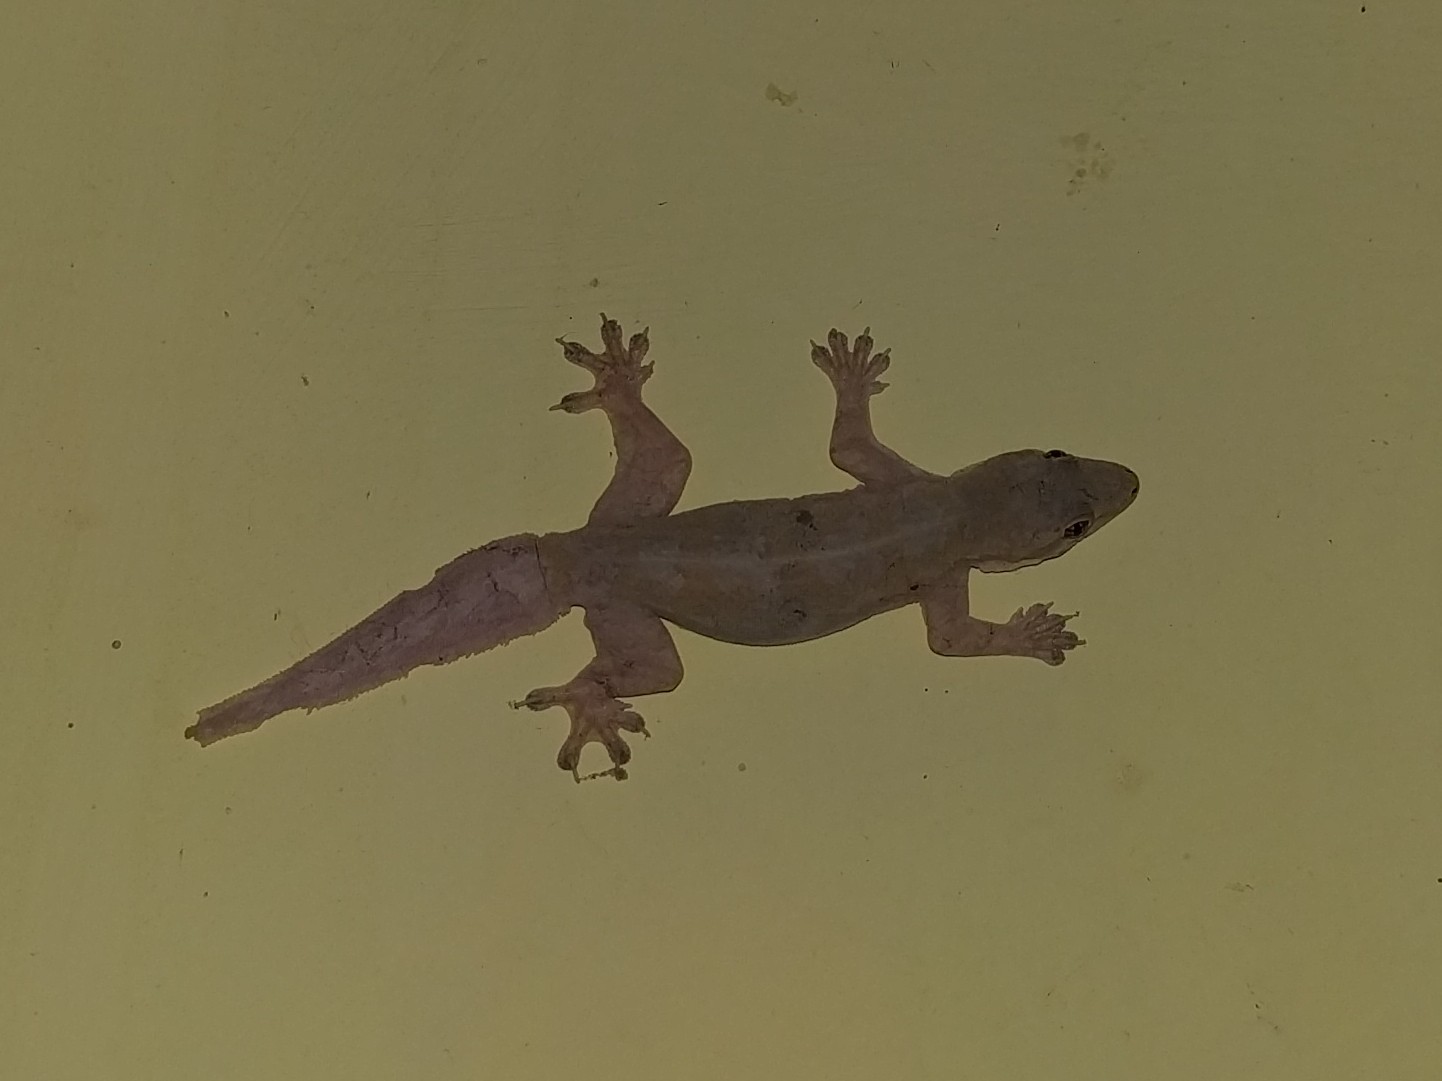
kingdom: Animalia
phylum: Chordata
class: Squamata
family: Gekkonidae
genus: Hemidactylus
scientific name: Hemidactylus platyurus
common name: Flat-tailed house gecko
